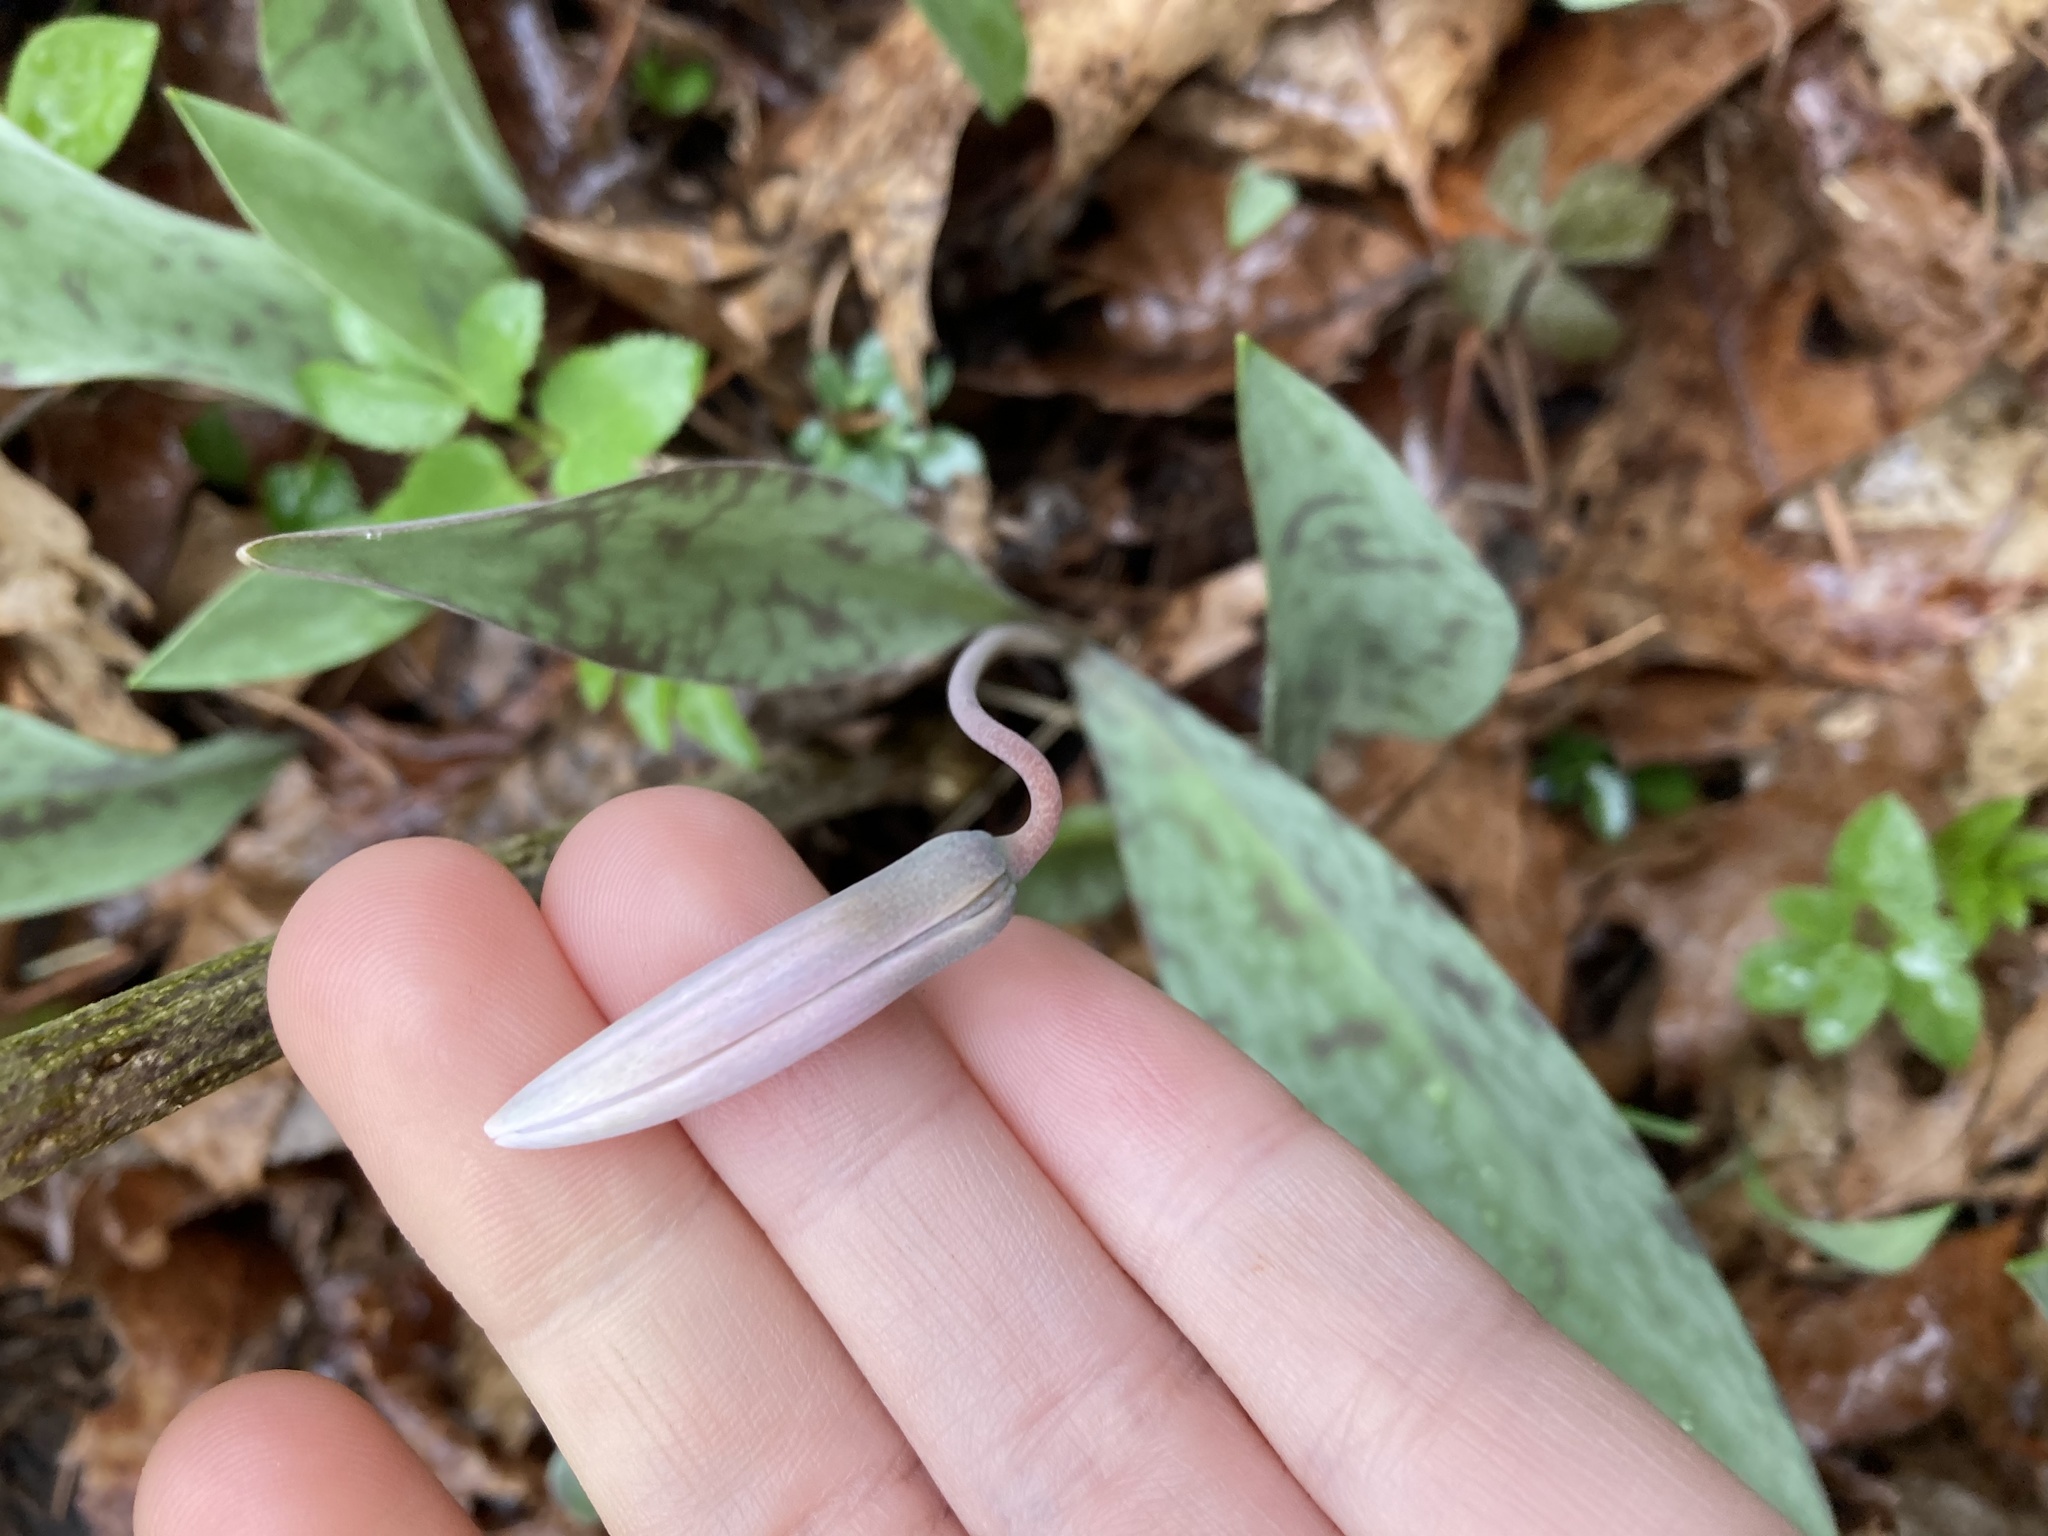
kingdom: Plantae
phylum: Tracheophyta
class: Liliopsida
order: Liliales
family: Liliaceae
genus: Erythronium
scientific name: Erythronium albidum
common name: White trout-lily
